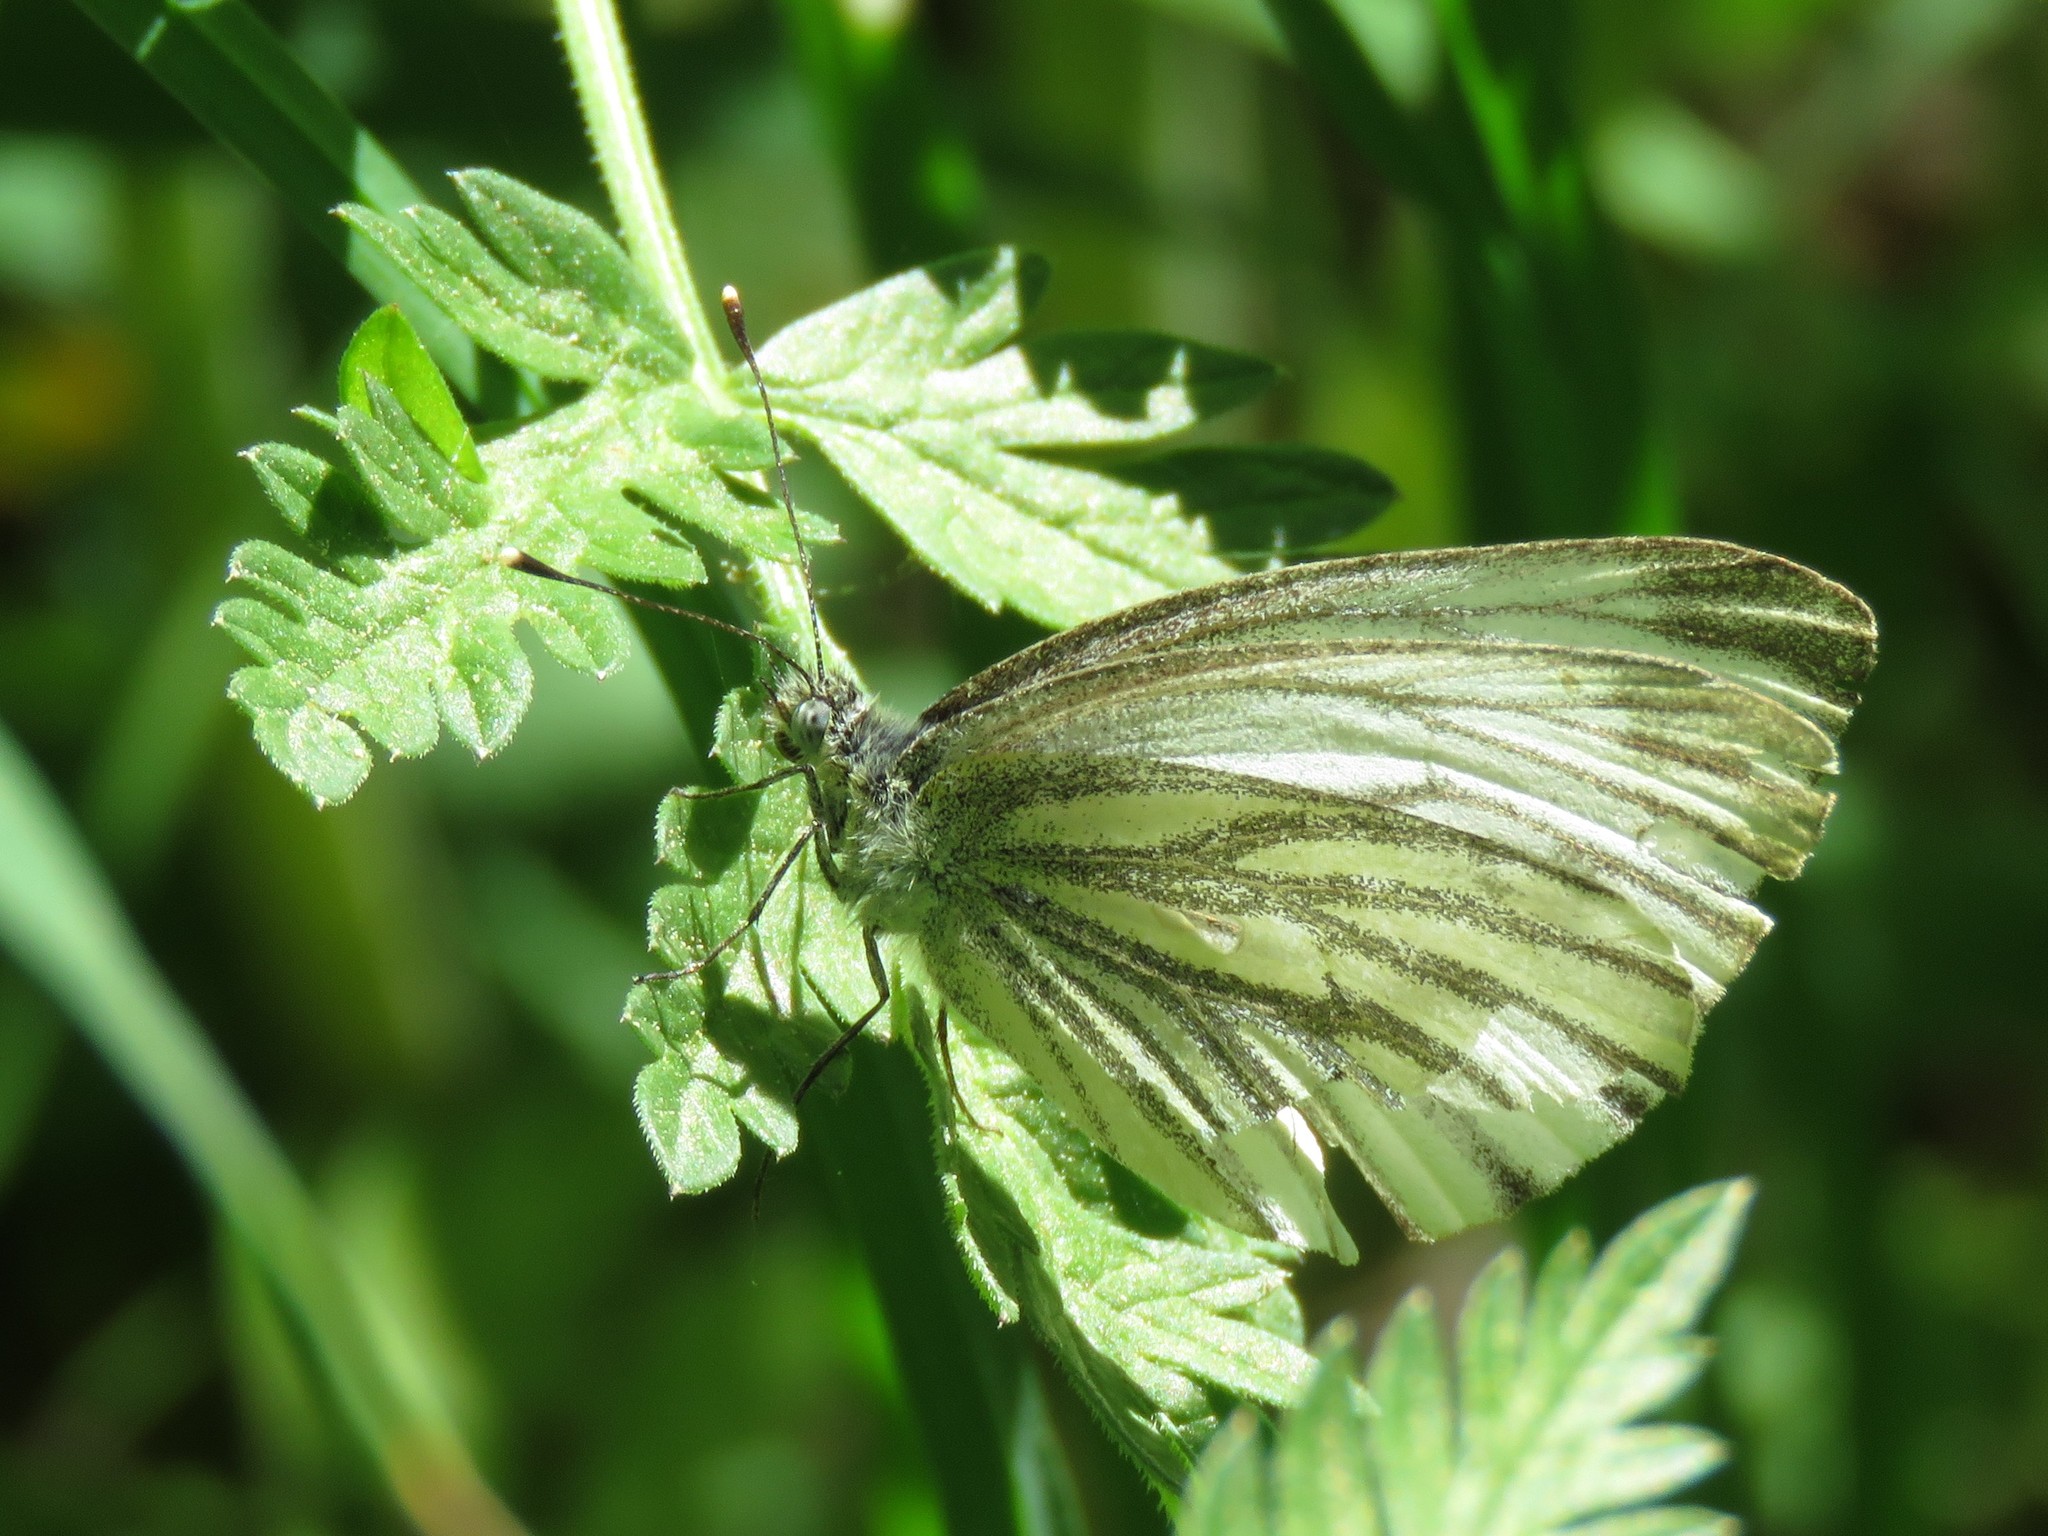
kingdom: Animalia
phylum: Arthropoda
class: Insecta
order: Lepidoptera
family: Pieridae
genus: Pieris
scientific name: Pieris napi
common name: Green-veined white
